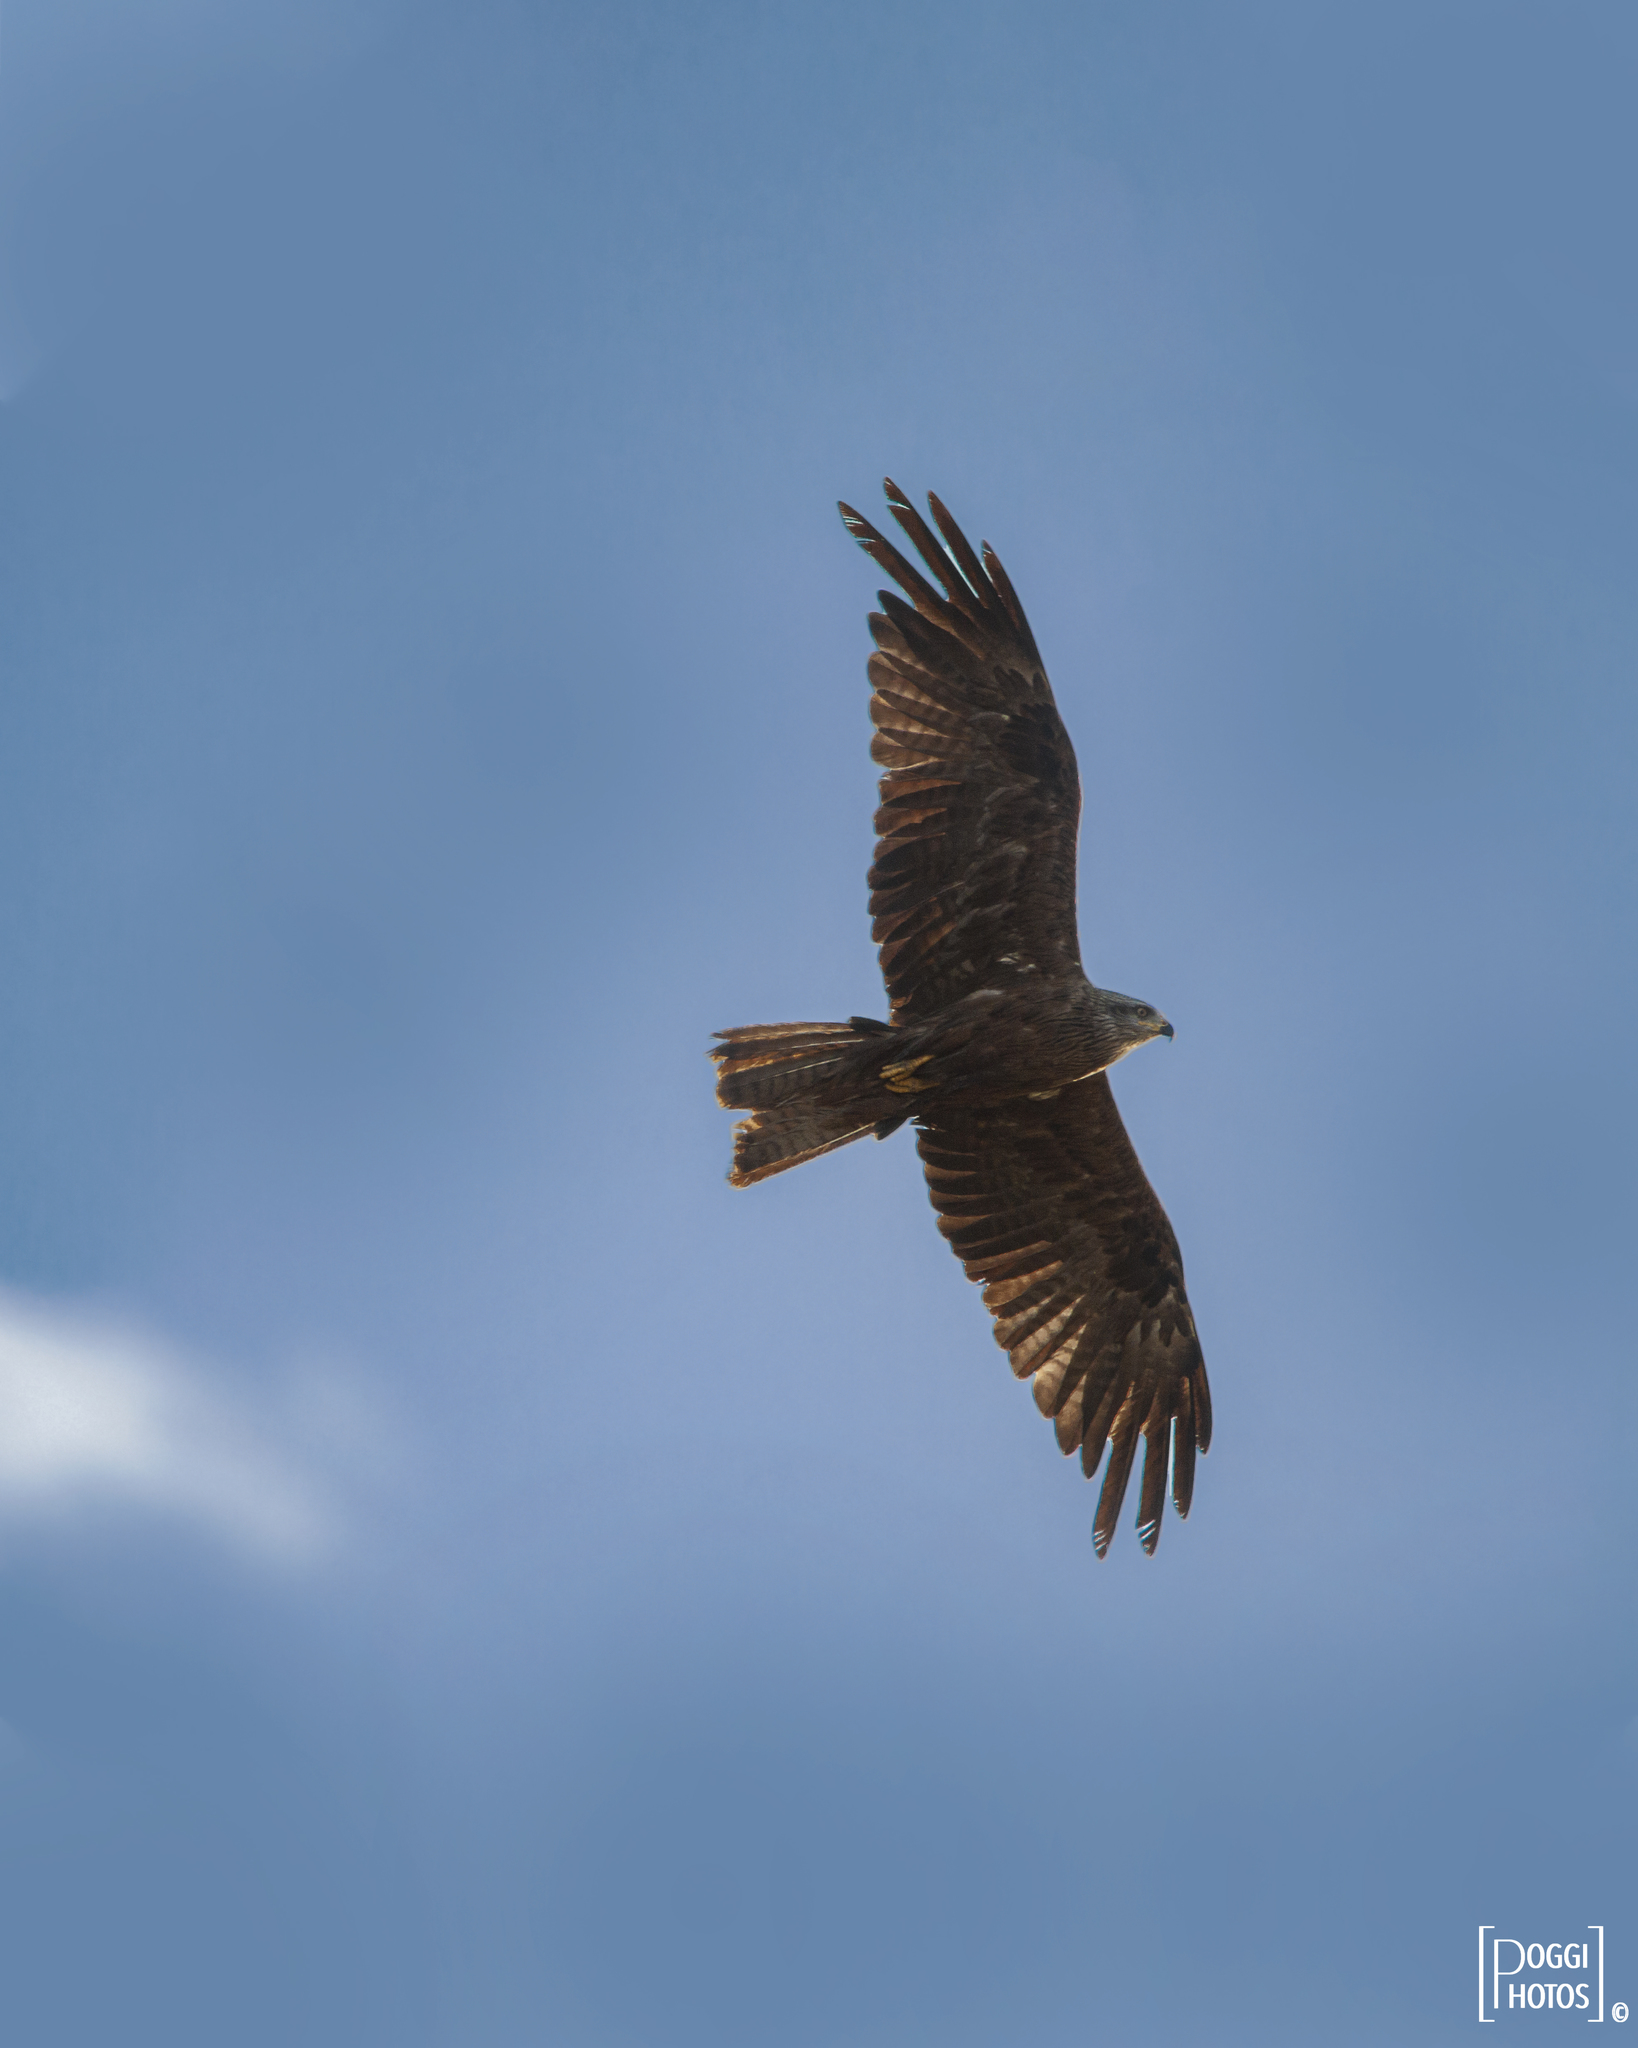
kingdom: Animalia
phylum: Chordata
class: Aves
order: Accipitriformes
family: Accipitridae
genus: Milvus
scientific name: Milvus migrans
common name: Black kite
